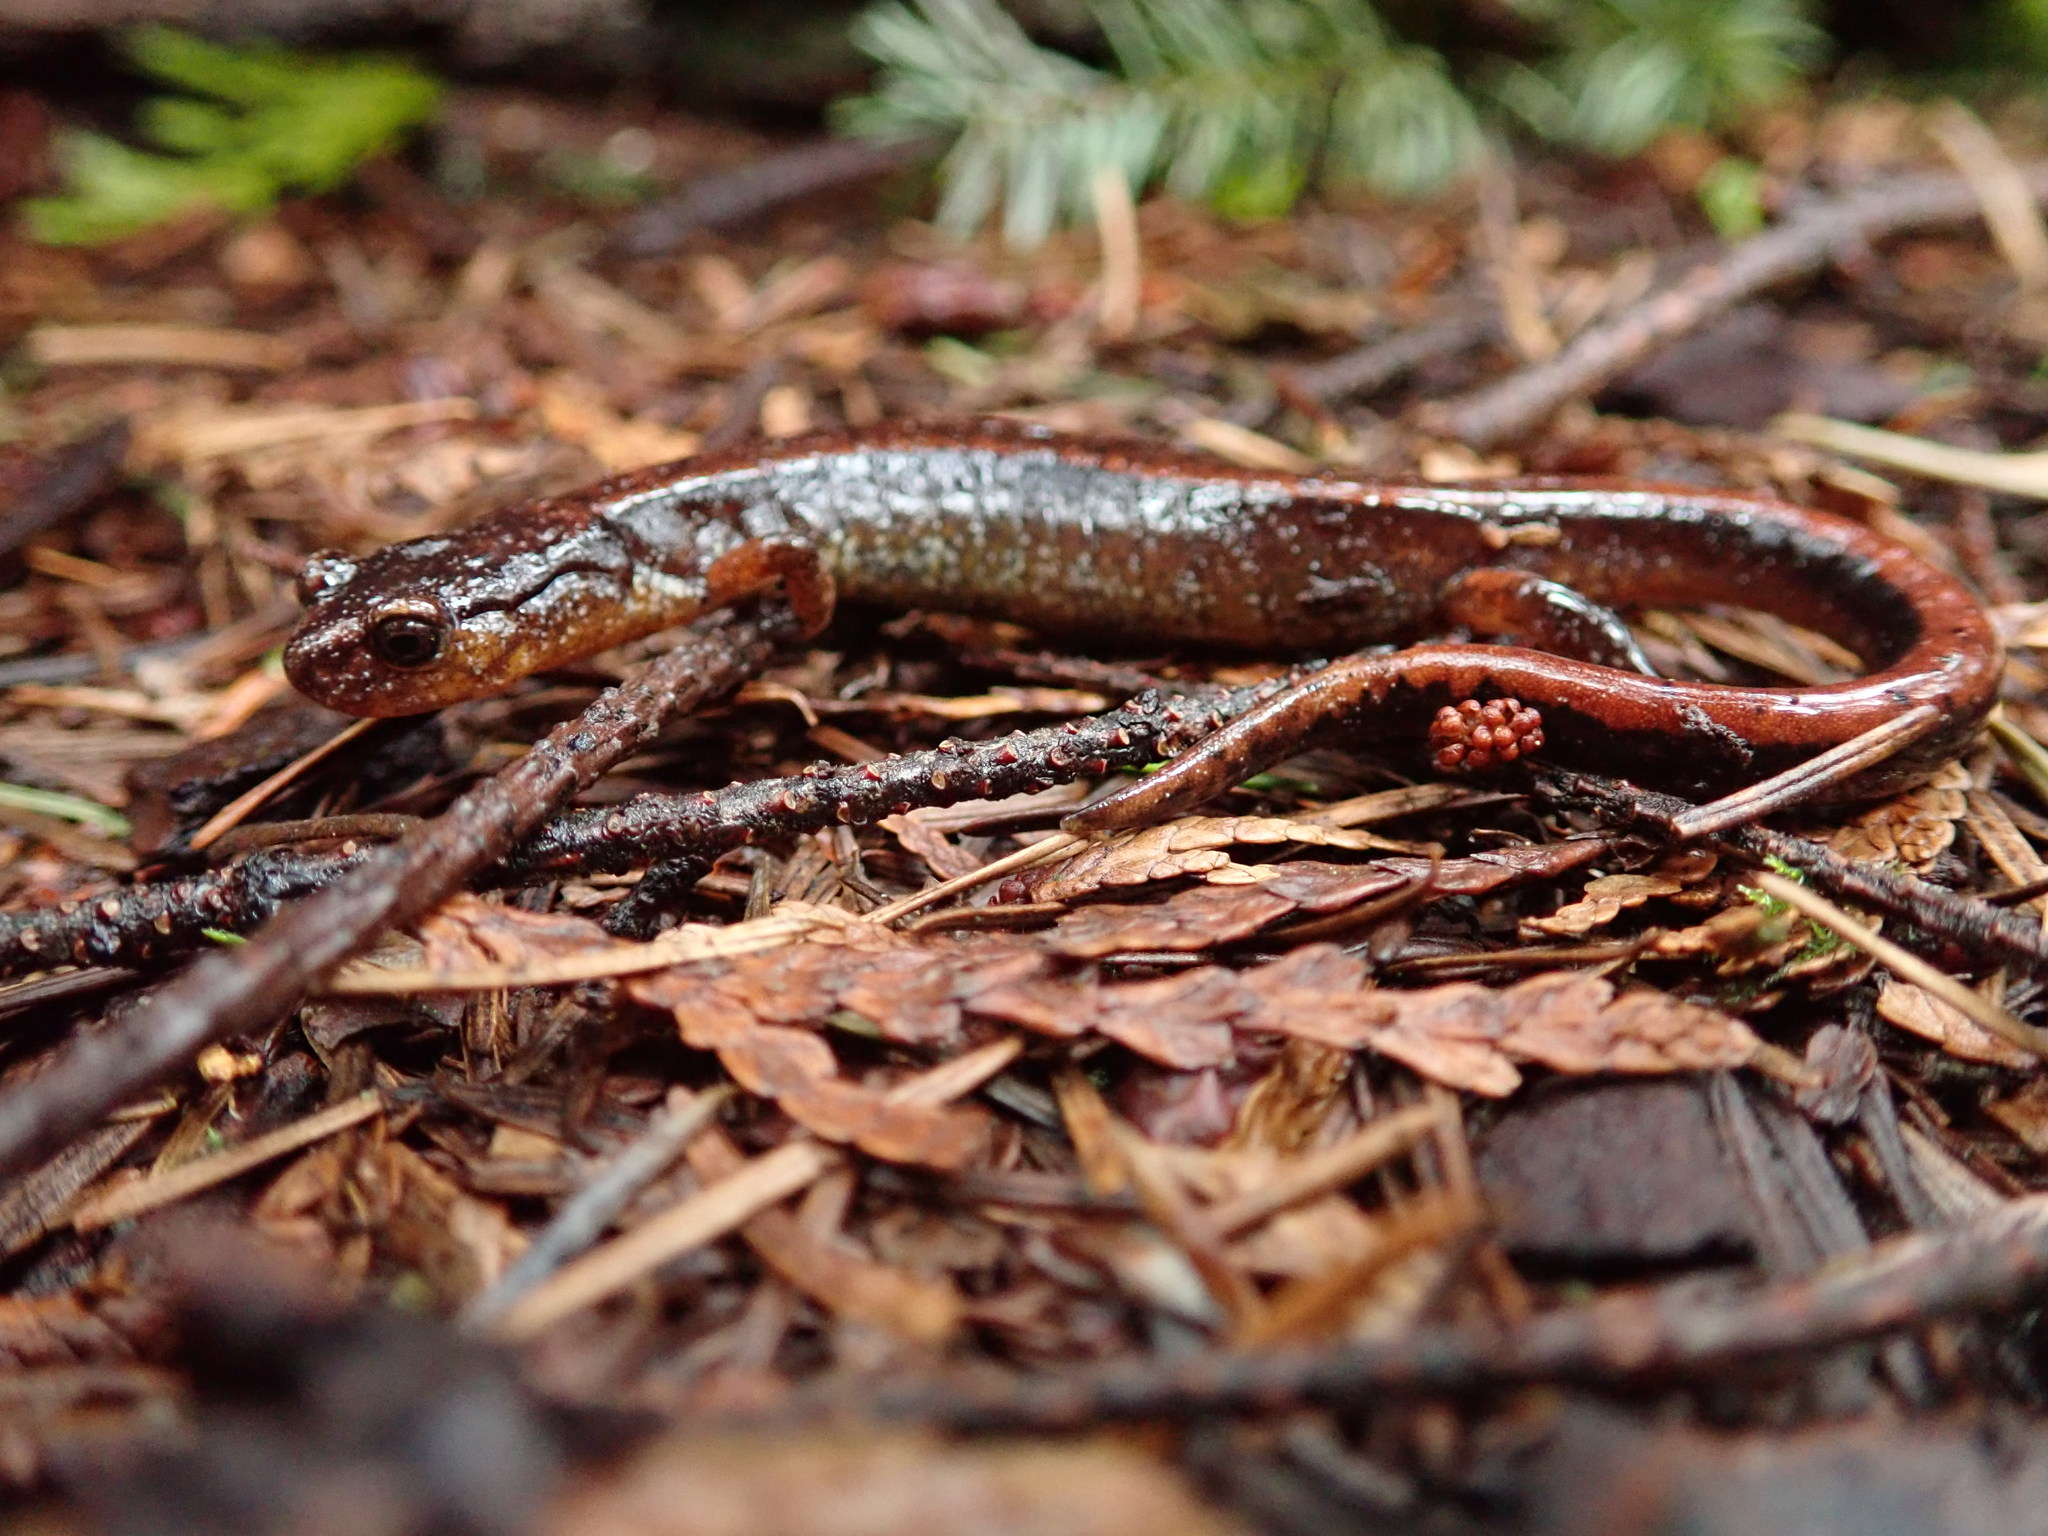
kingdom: Animalia
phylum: Chordata
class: Amphibia
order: Caudata
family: Plethodontidae
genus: Plethodon
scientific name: Plethodon vehiculum
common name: Western red-backed salamander
